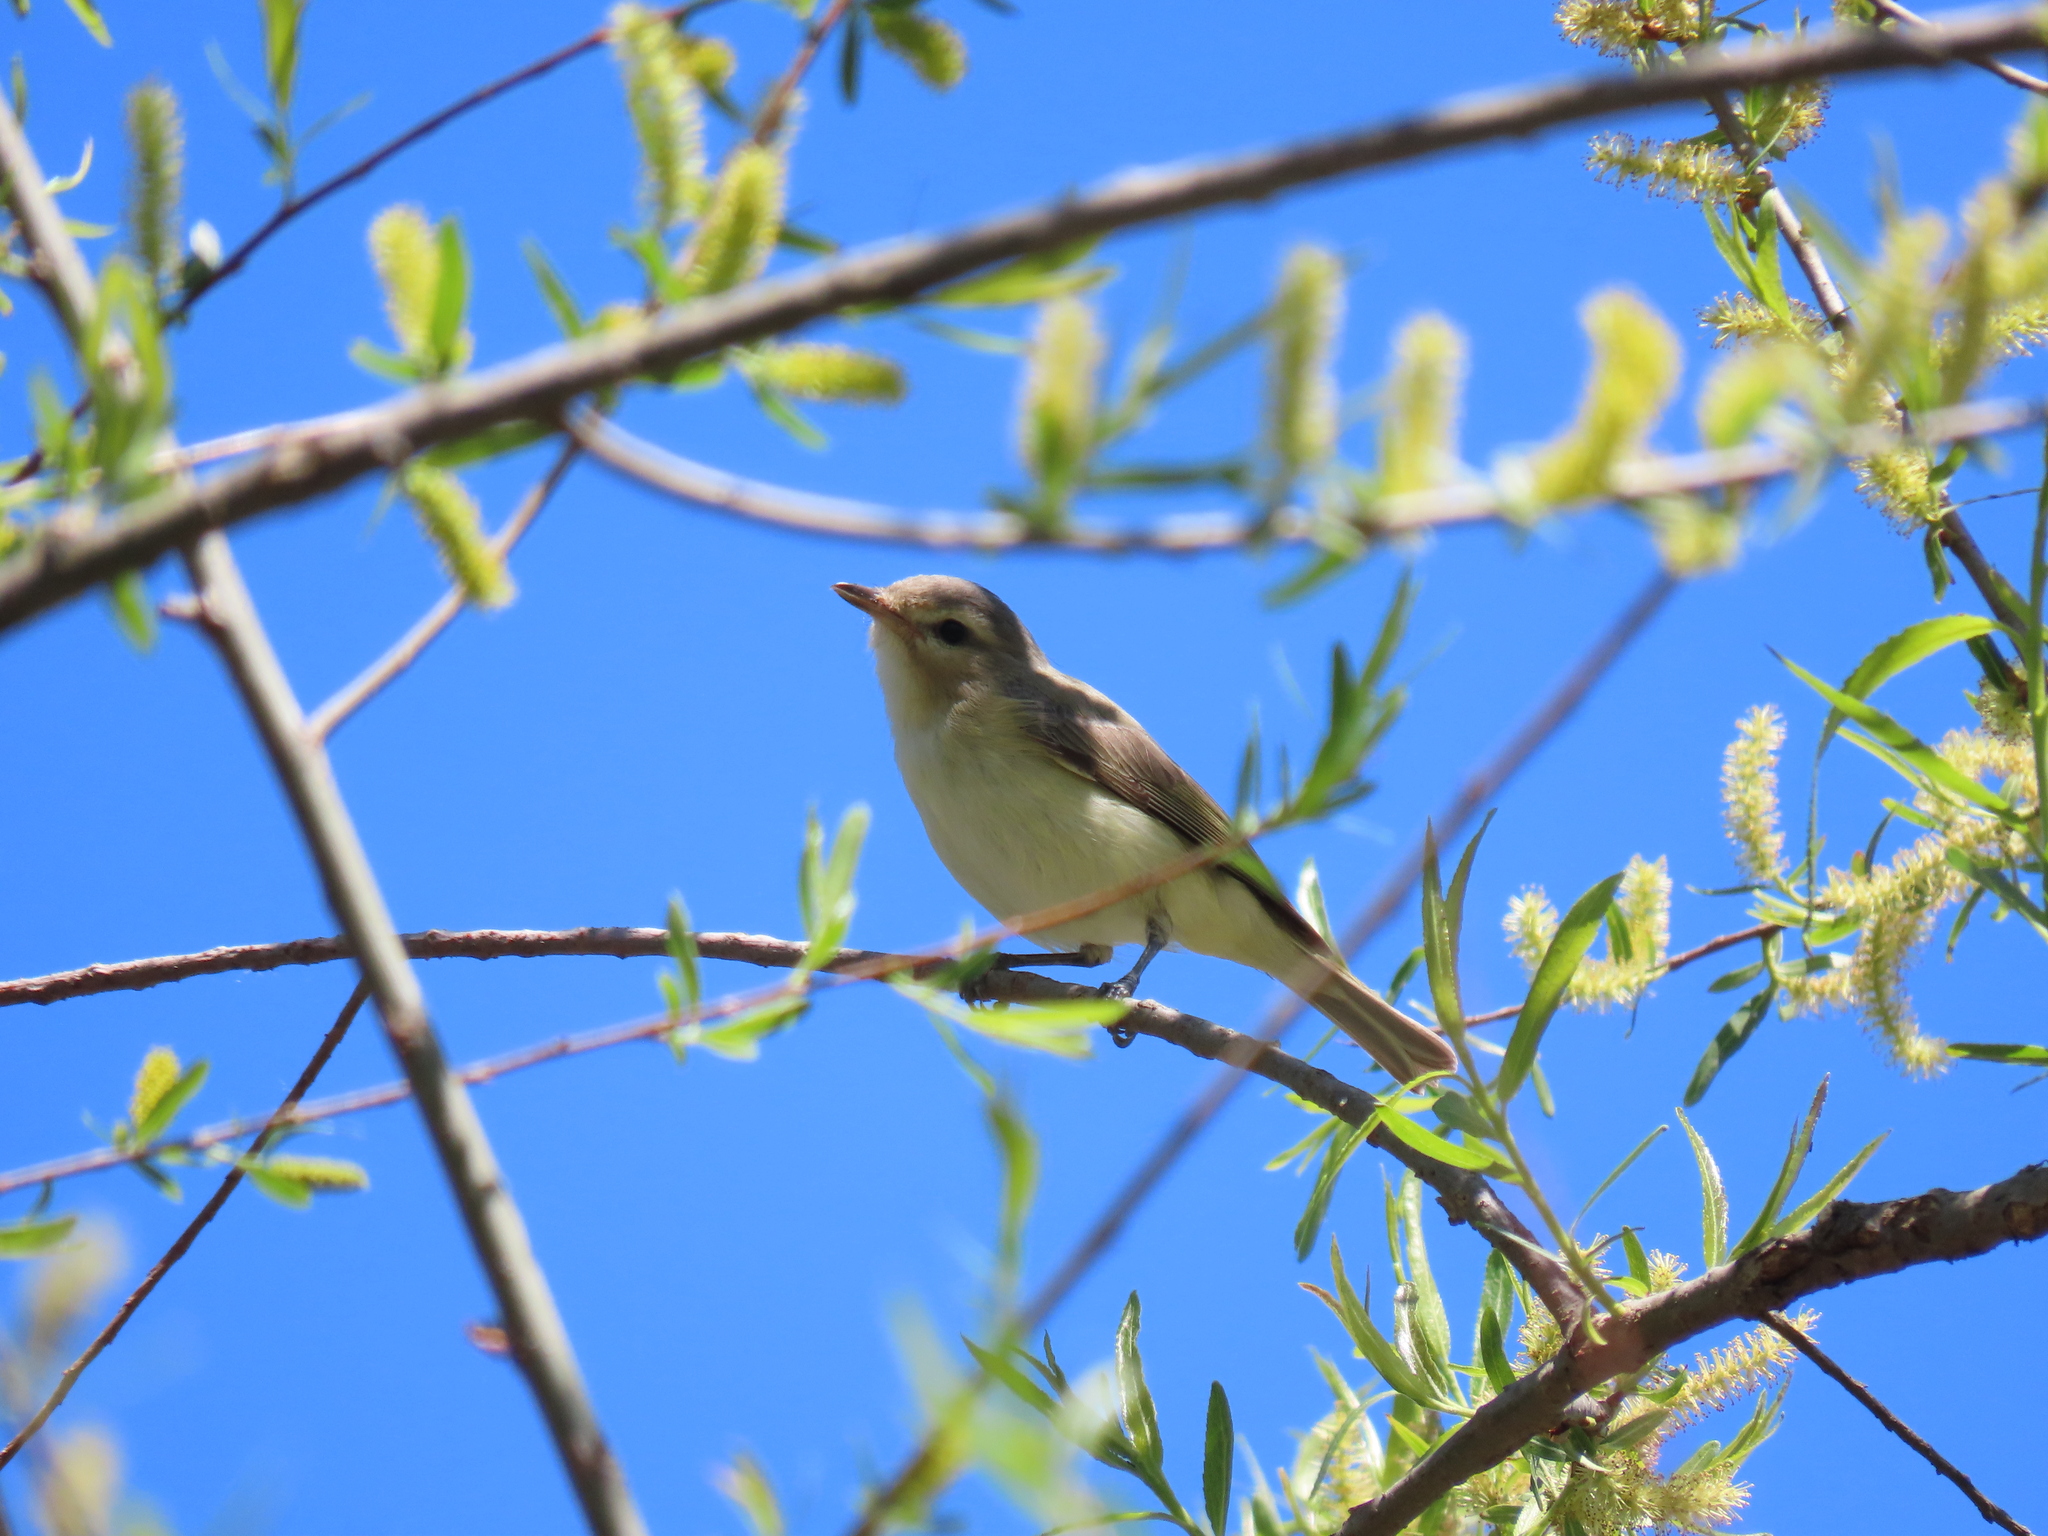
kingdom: Animalia
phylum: Chordata
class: Aves
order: Passeriformes
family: Vireonidae
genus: Vireo
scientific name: Vireo gilvus
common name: Warbling vireo
